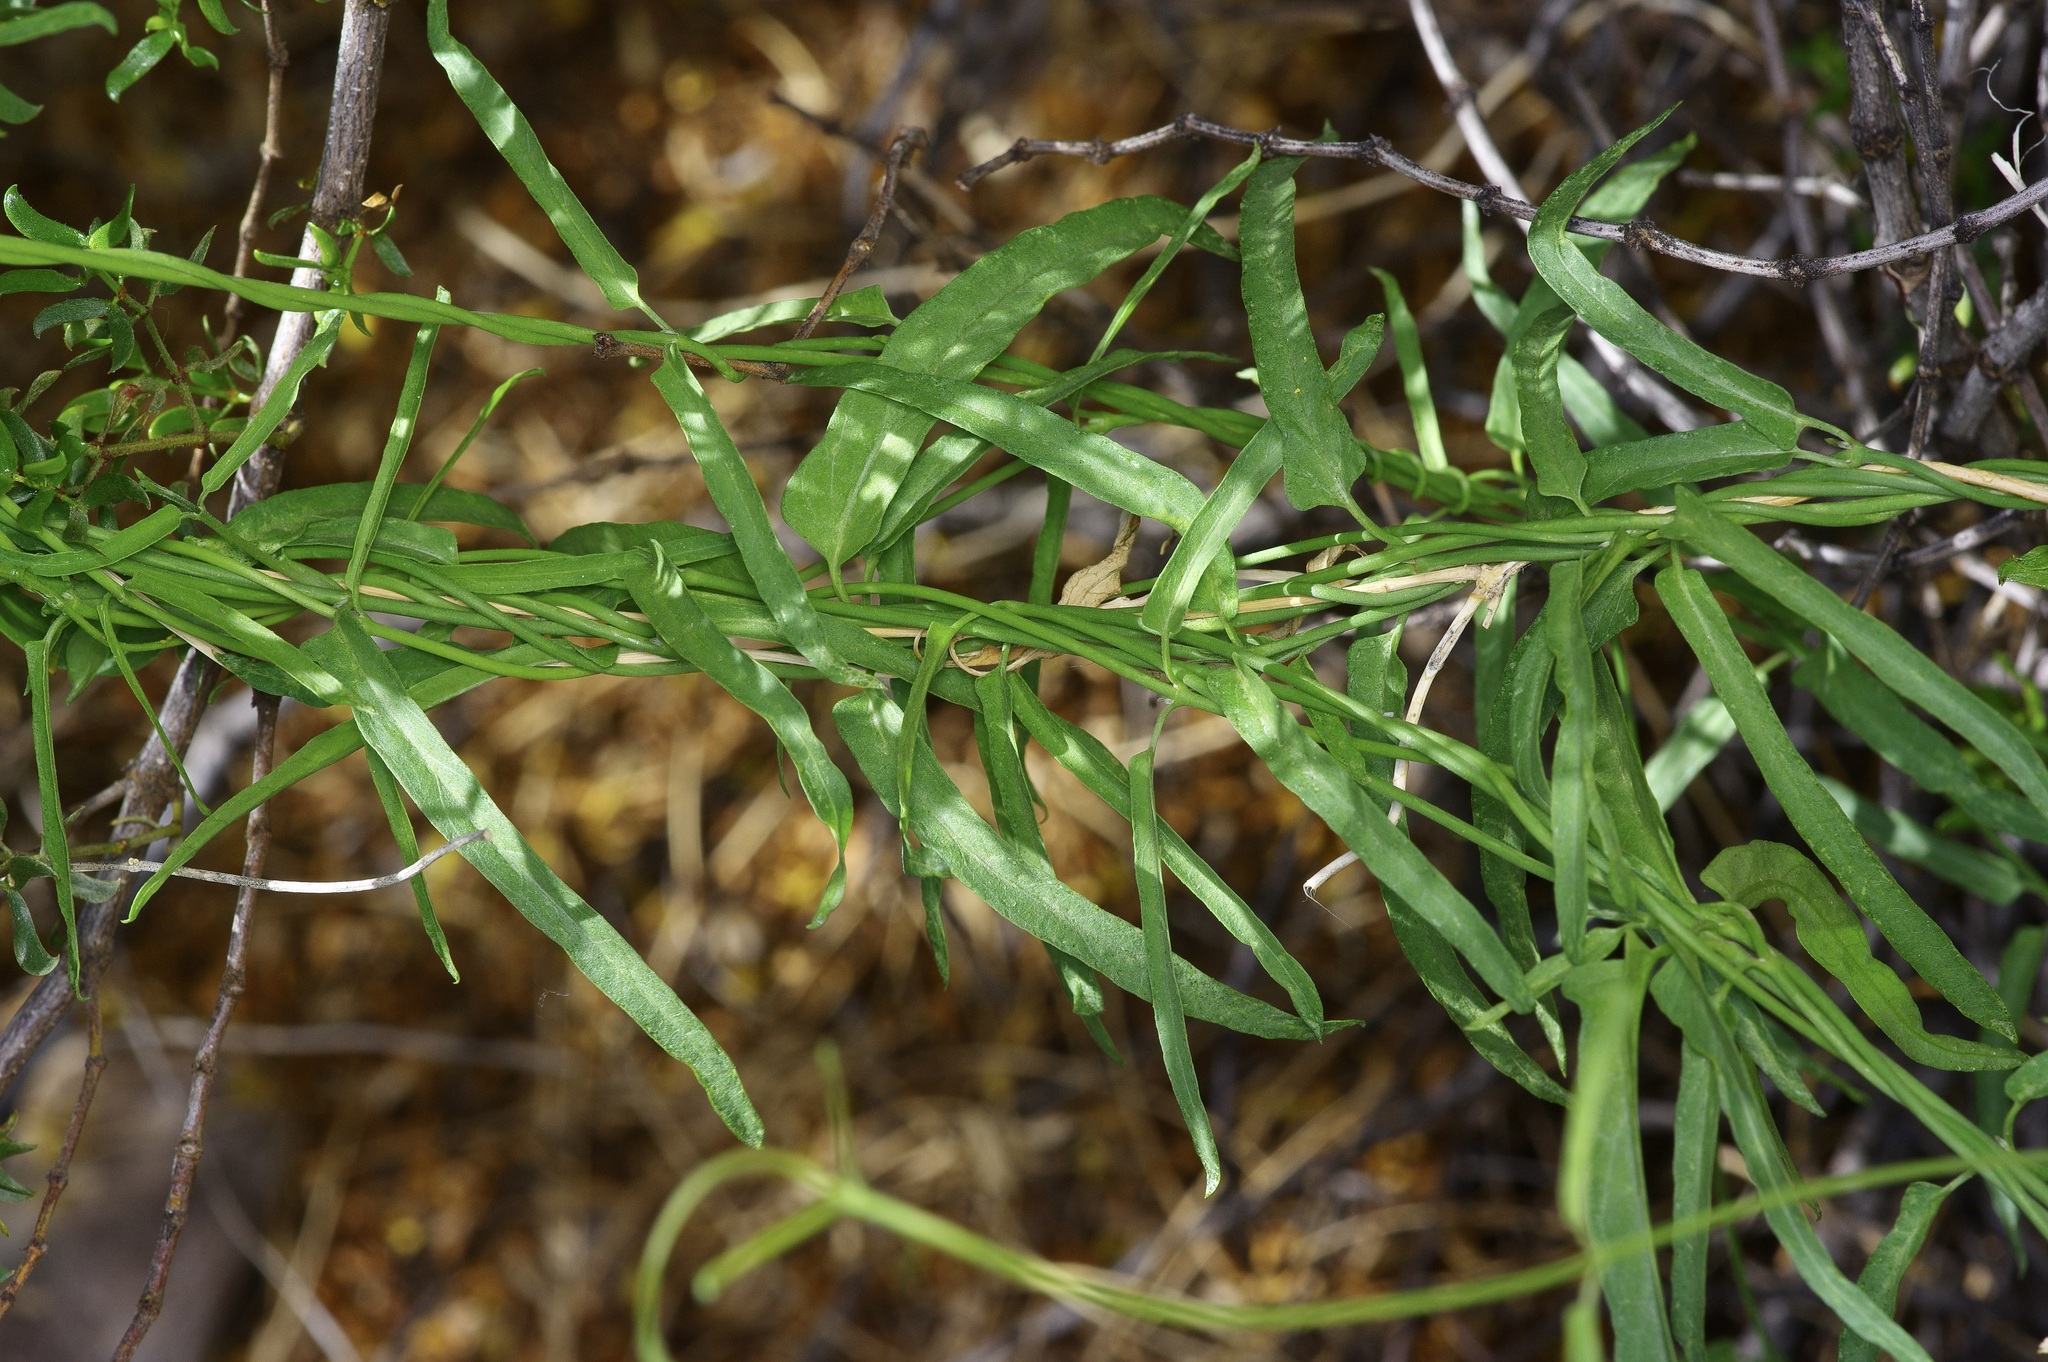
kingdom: Plantae
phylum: Tracheophyta
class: Magnoliopsida
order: Gentianales
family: Apocynaceae
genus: Funastrum
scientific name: Funastrum heterophyllum
